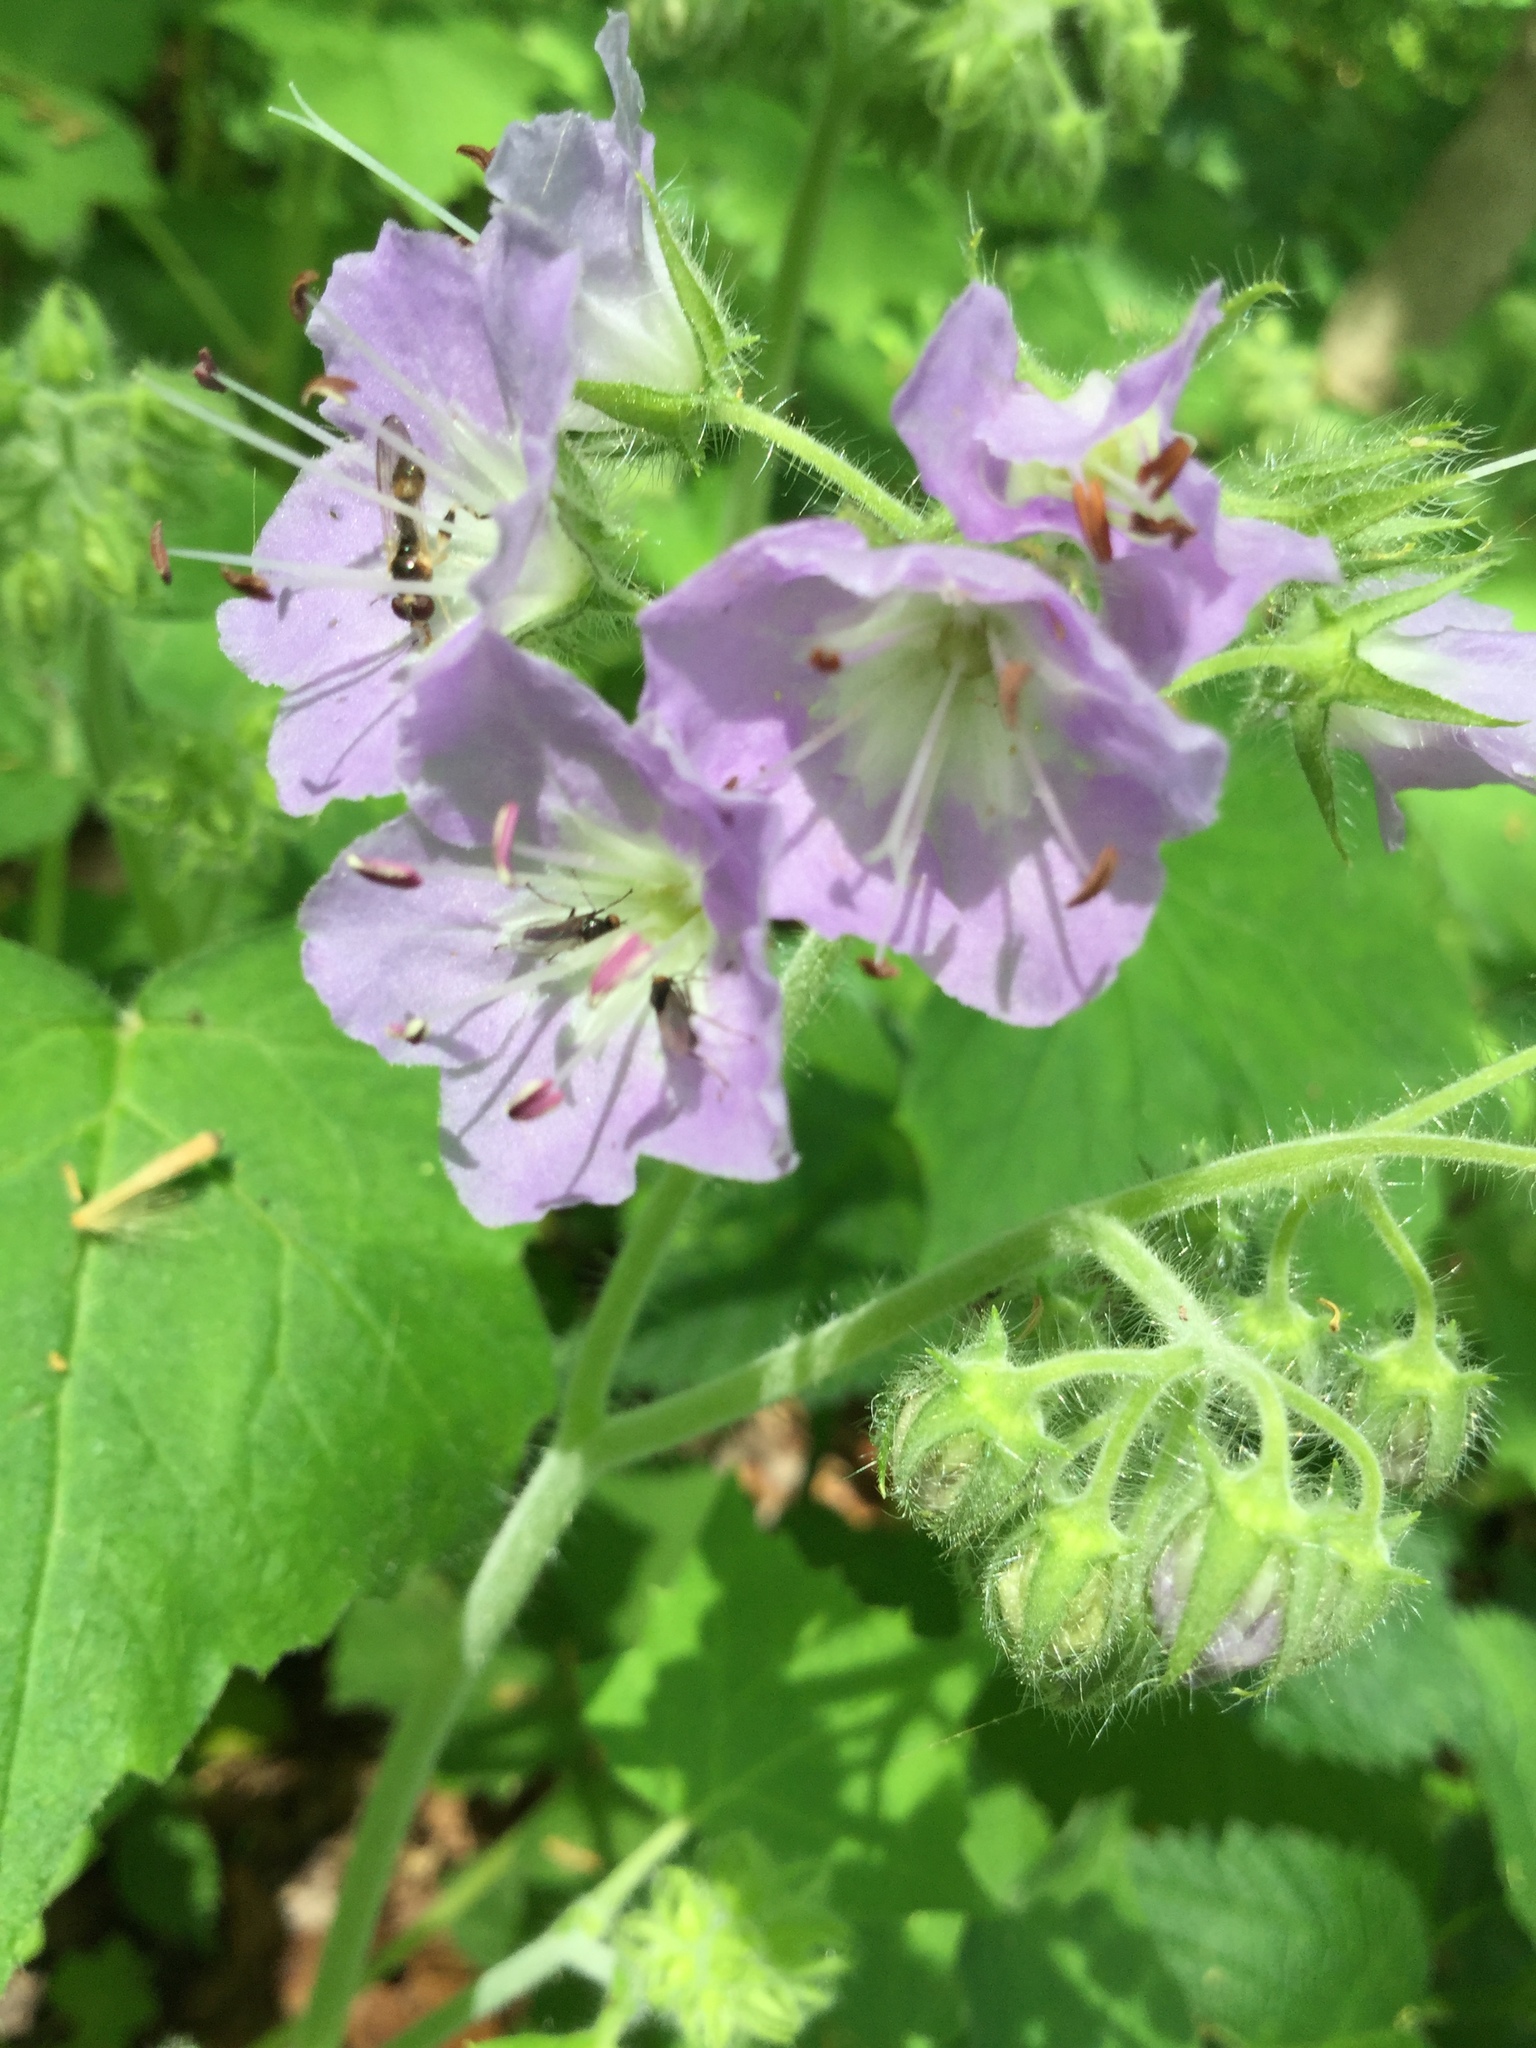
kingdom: Plantae
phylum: Tracheophyta
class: Magnoliopsida
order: Boraginales
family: Hydrophyllaceae
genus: Hydrophyllum
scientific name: Hydrophyllum appendiculatum
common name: Appendaged waterleaf
